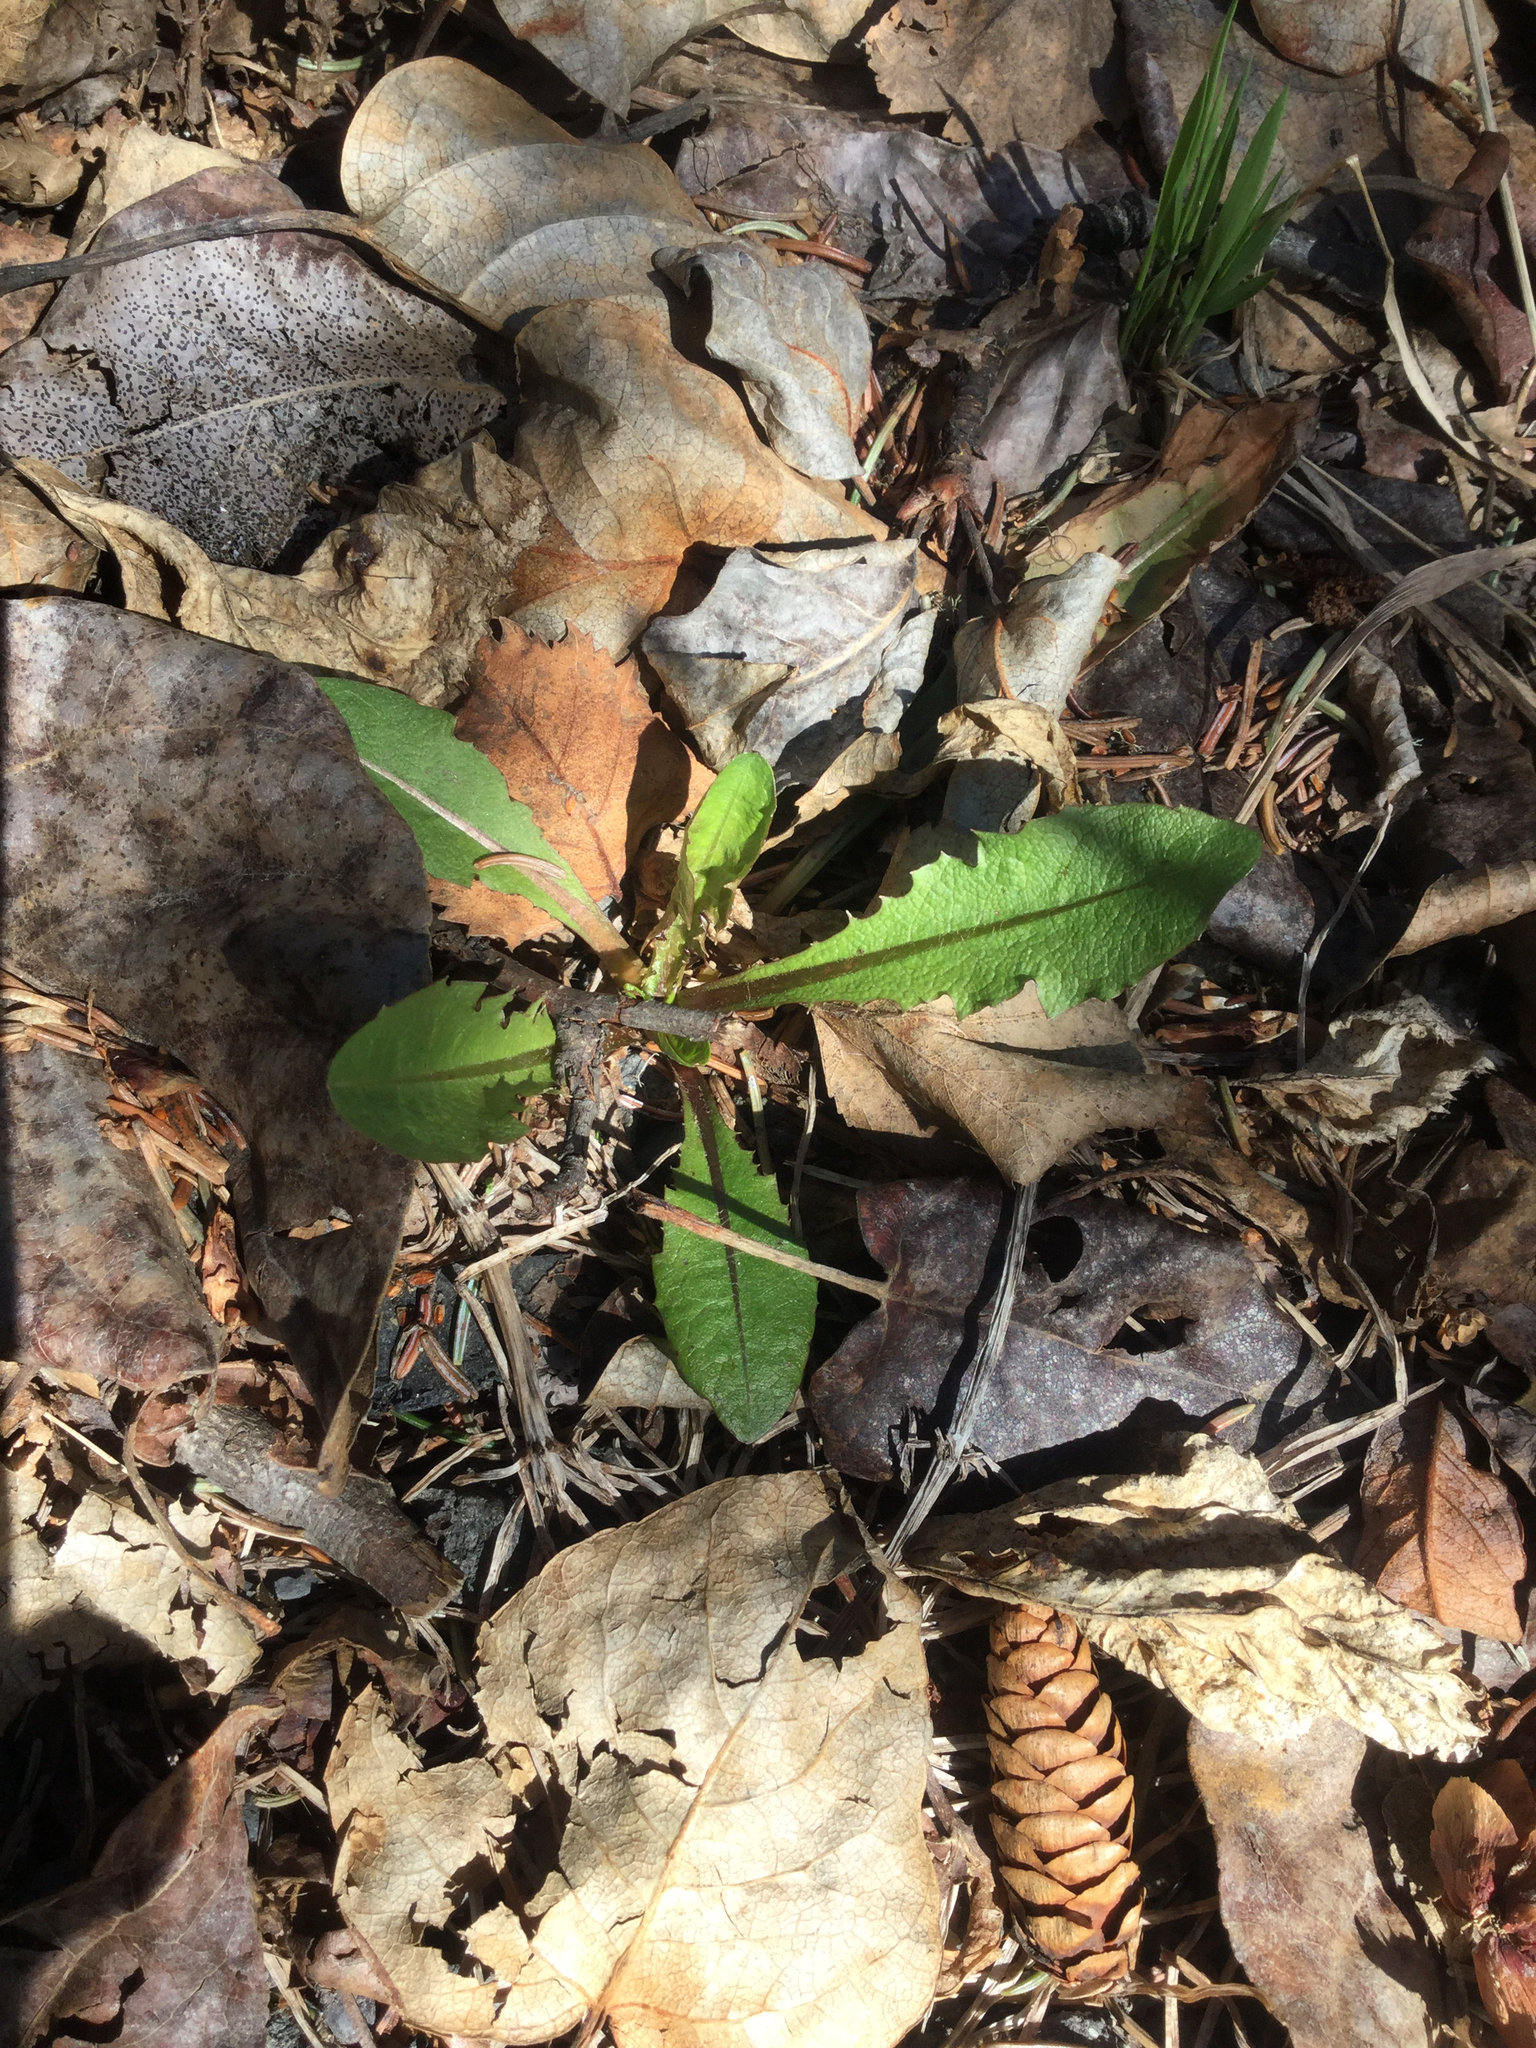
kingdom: Plantae
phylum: Tracheophyta
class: Magnoliopsida
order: Asterales
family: Asteraceae
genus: Taraxacum
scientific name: Taraxacum officinale
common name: Common dandelion
